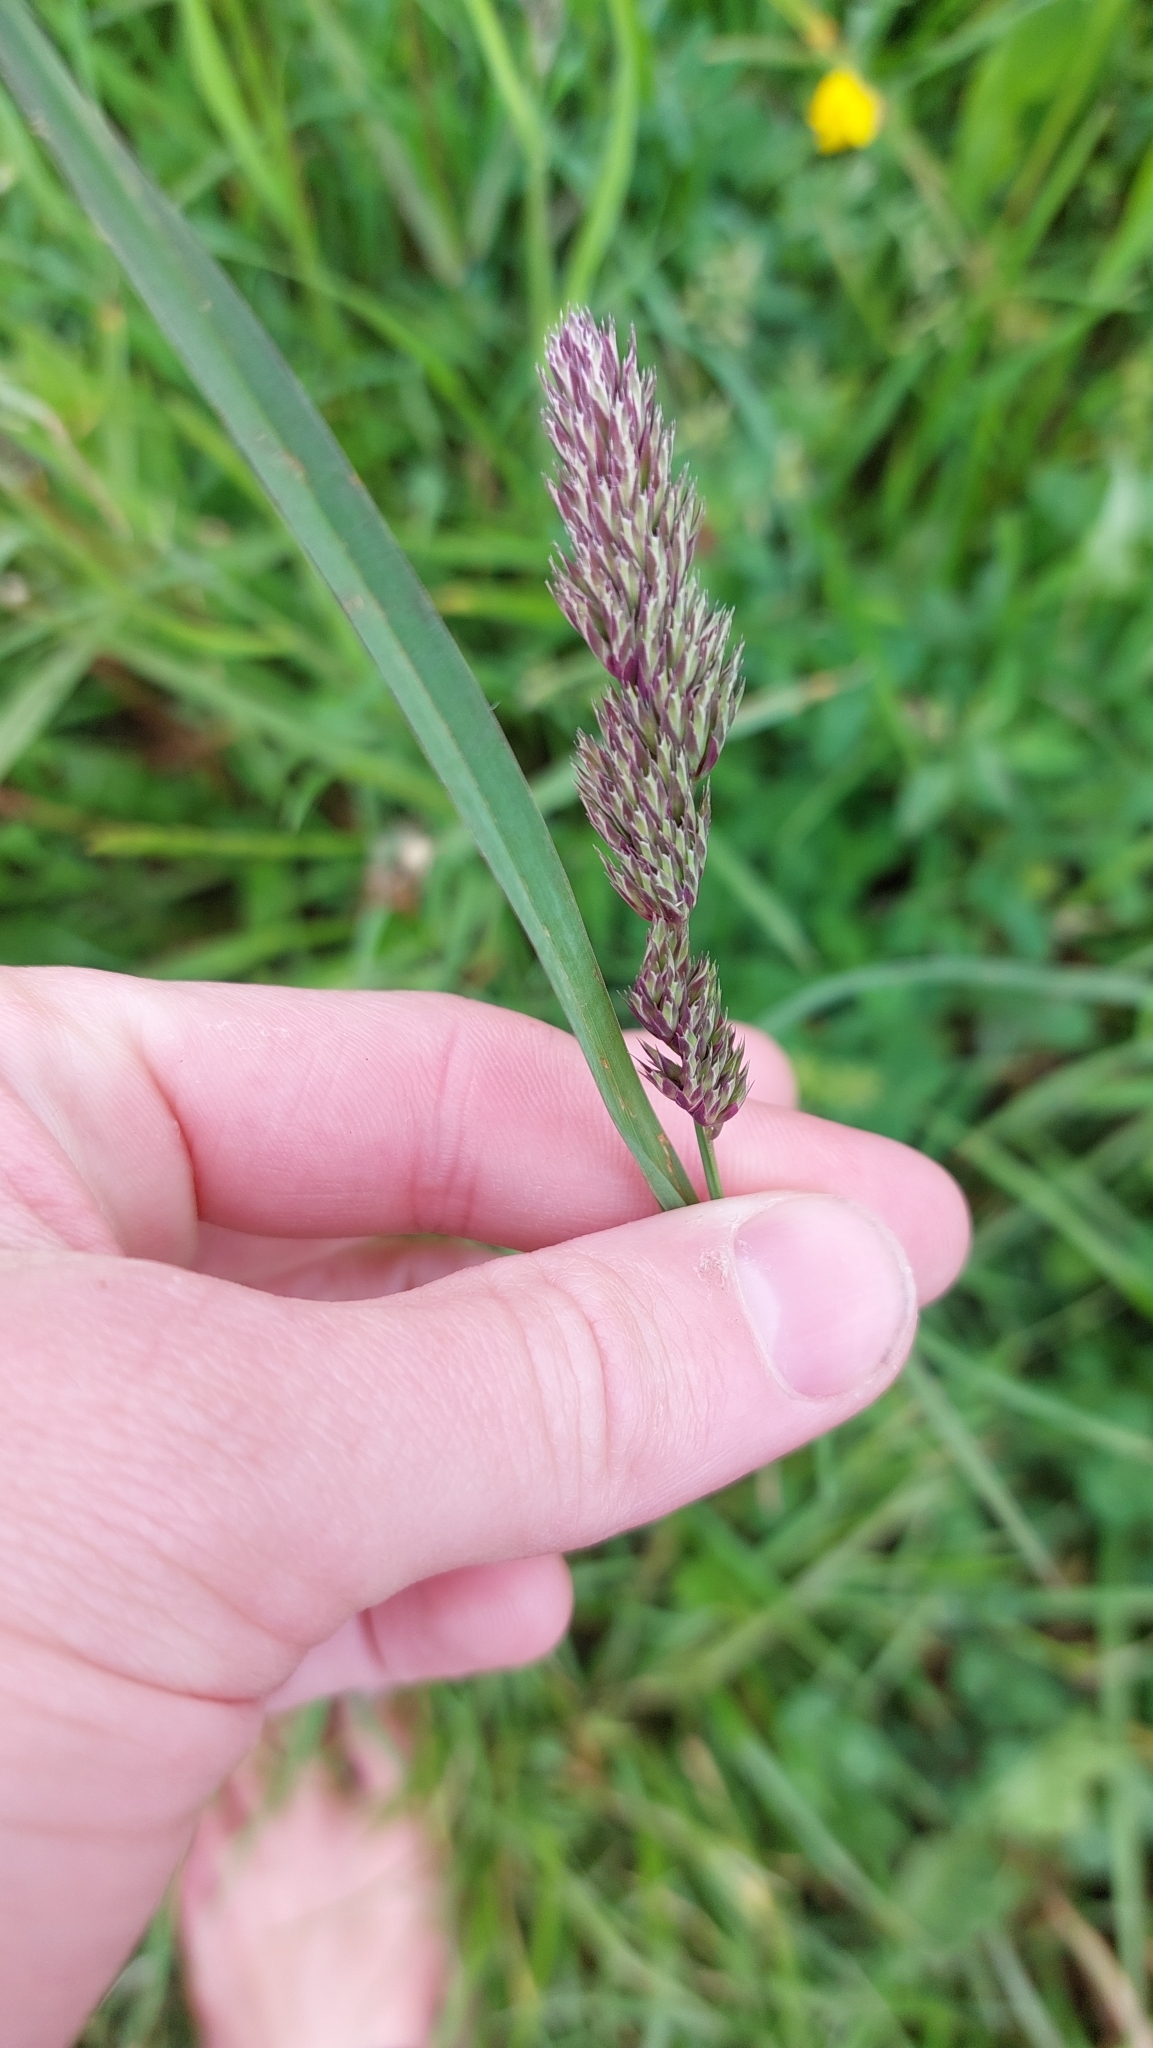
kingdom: Plantae
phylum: Tracheophyta
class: Liliopsida
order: Poales
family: Poaceae
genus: Dactylis
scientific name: Dactylis glomerata
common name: Orchardgrass
